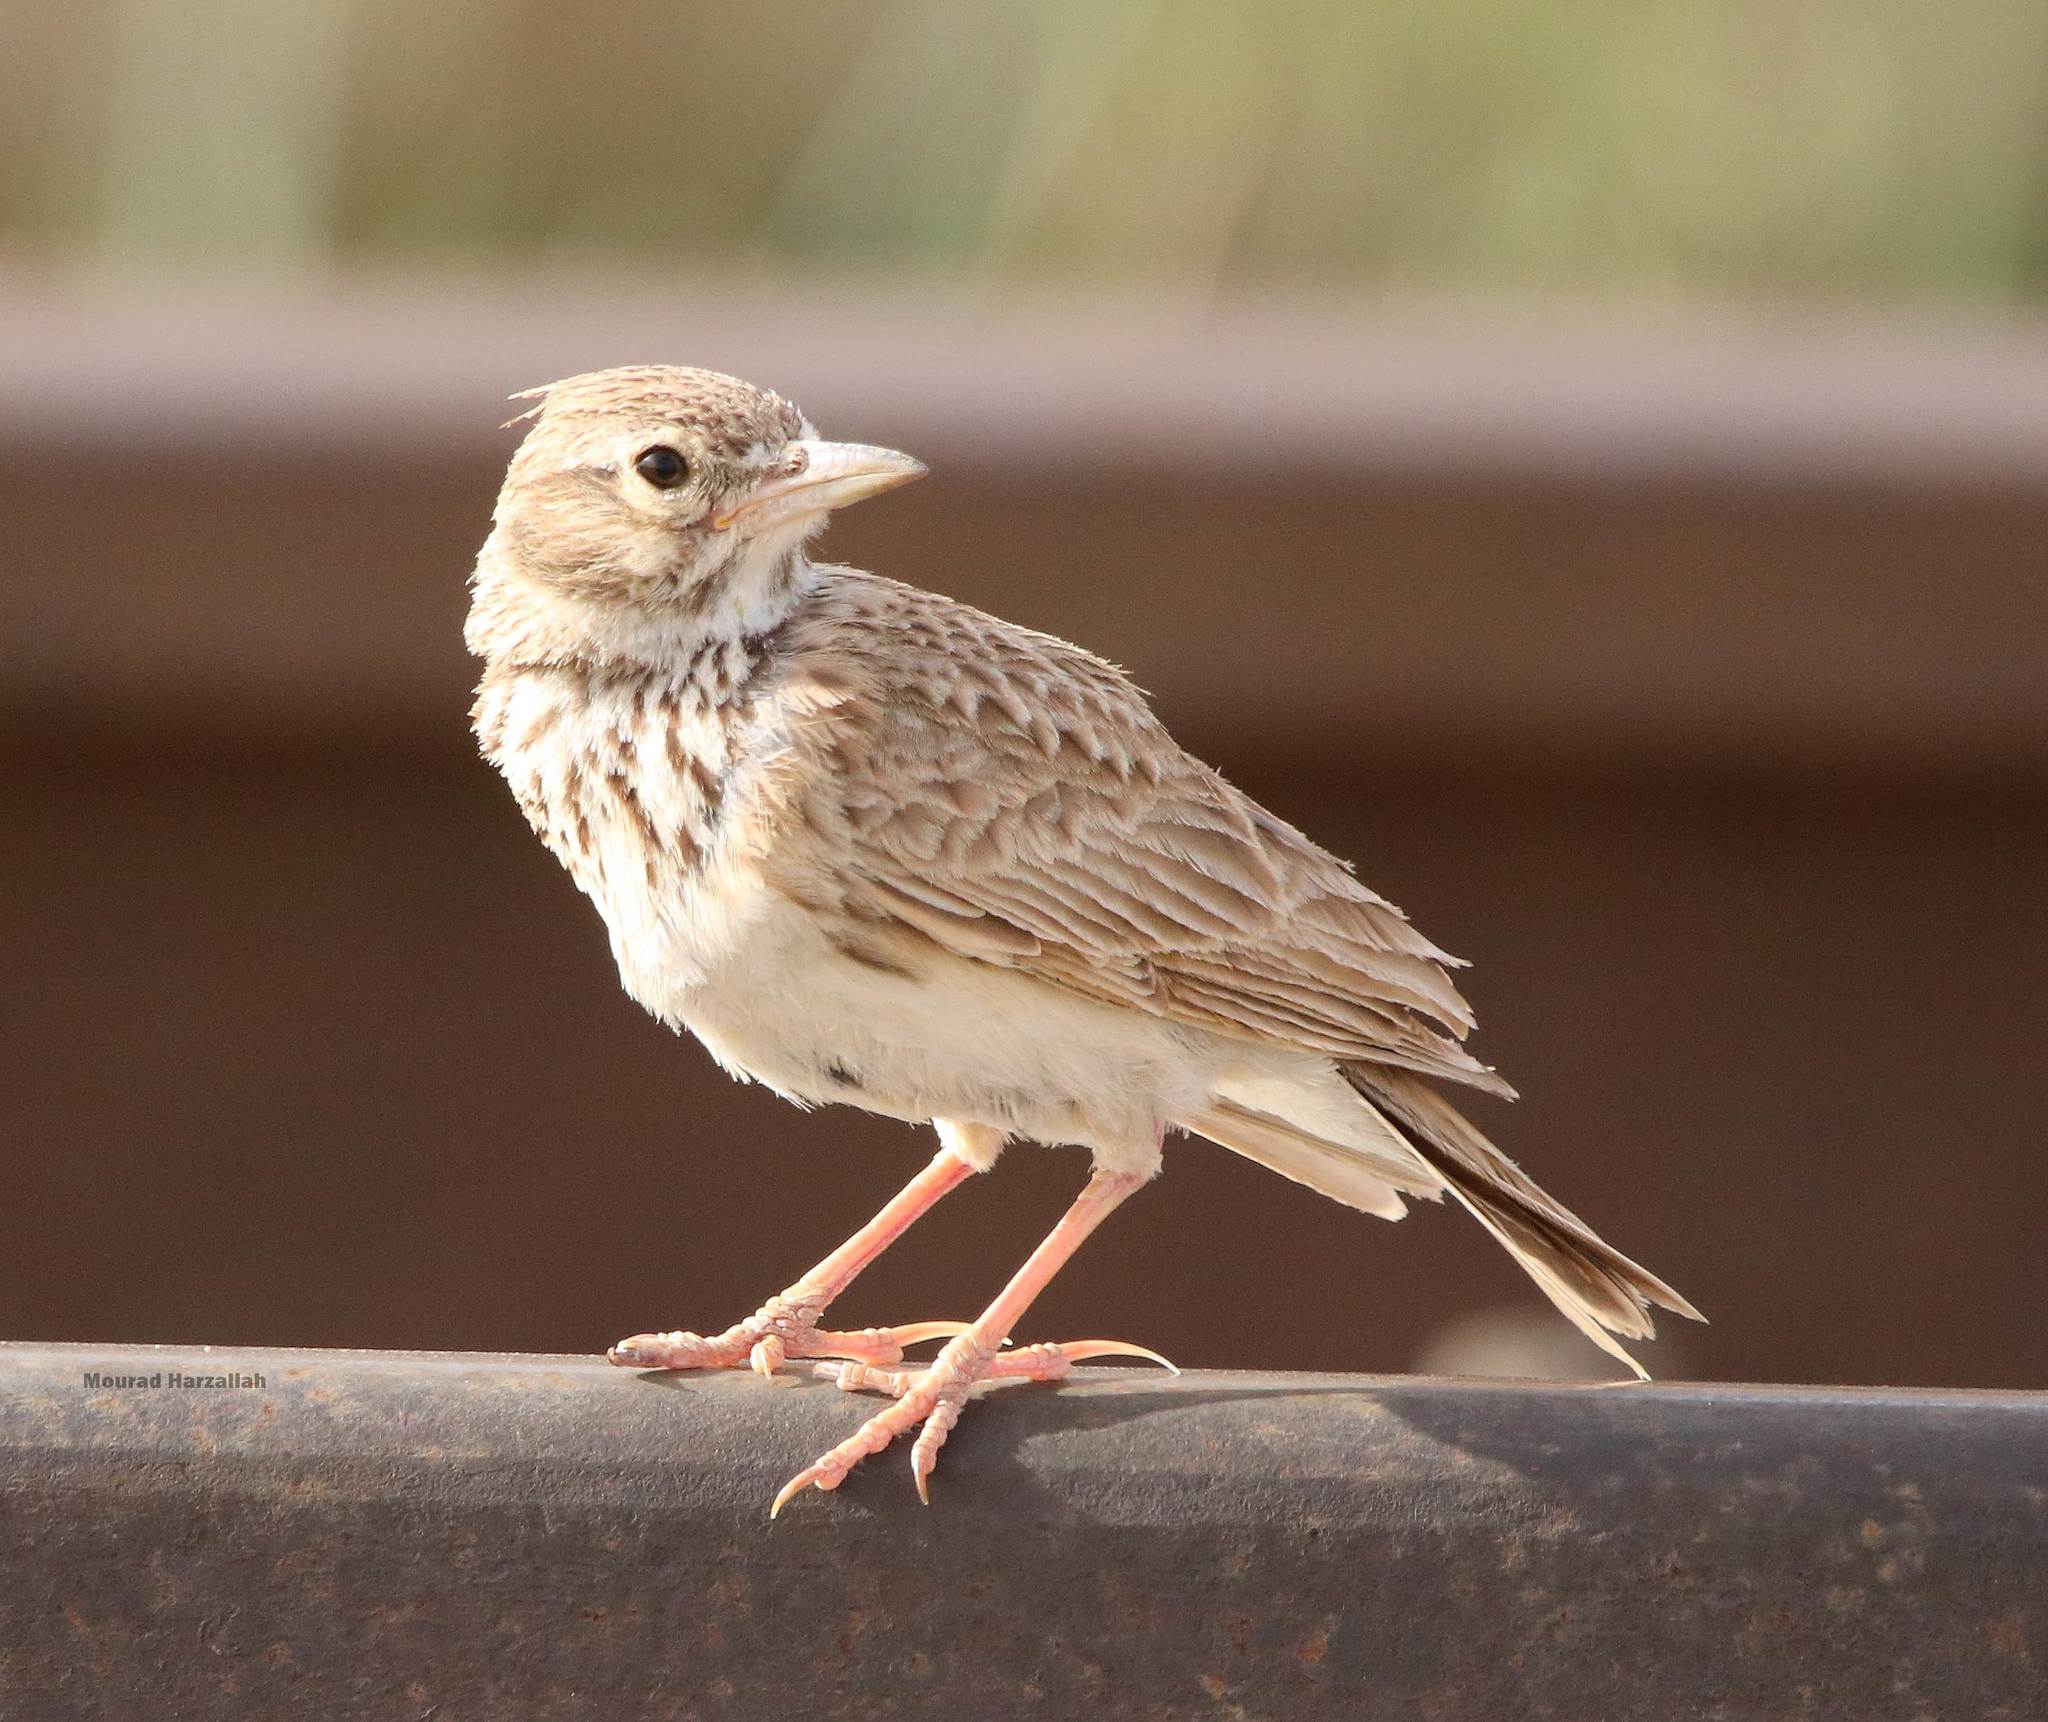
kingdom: Animalia
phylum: Chordata
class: Aves
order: Passeriformes
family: Alaudidae
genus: Galerida
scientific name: Galerida cristata
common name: Crested lark
